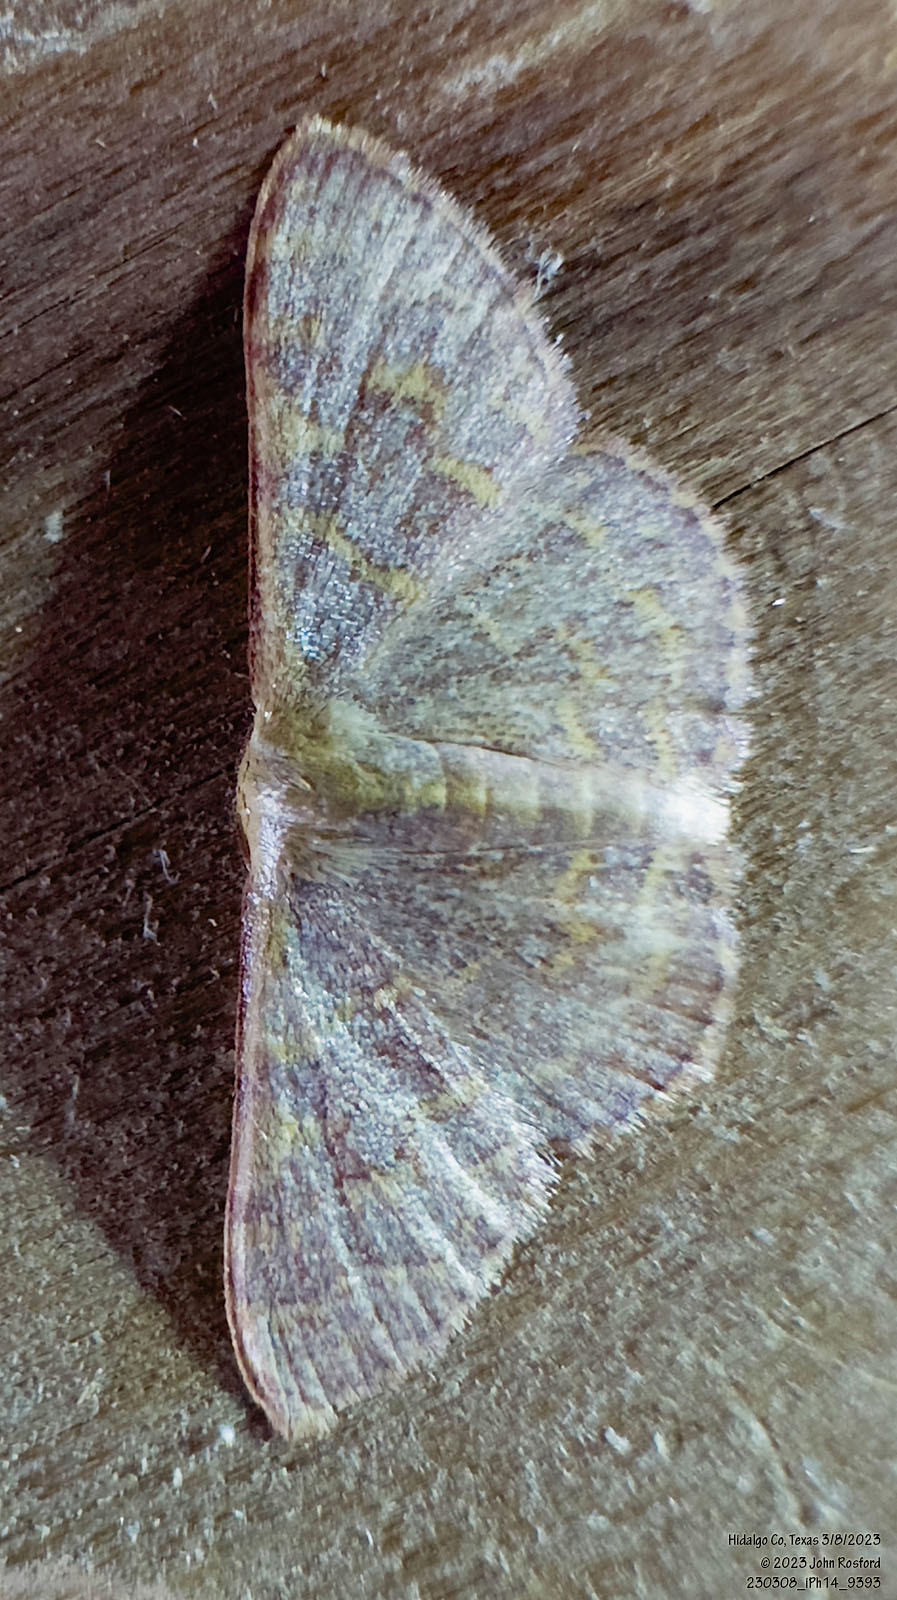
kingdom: Animalia
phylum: Arthropoda
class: Insecta
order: Lepidoptera
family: Geometridae
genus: Leptostales
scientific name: Leptostales pannaria
